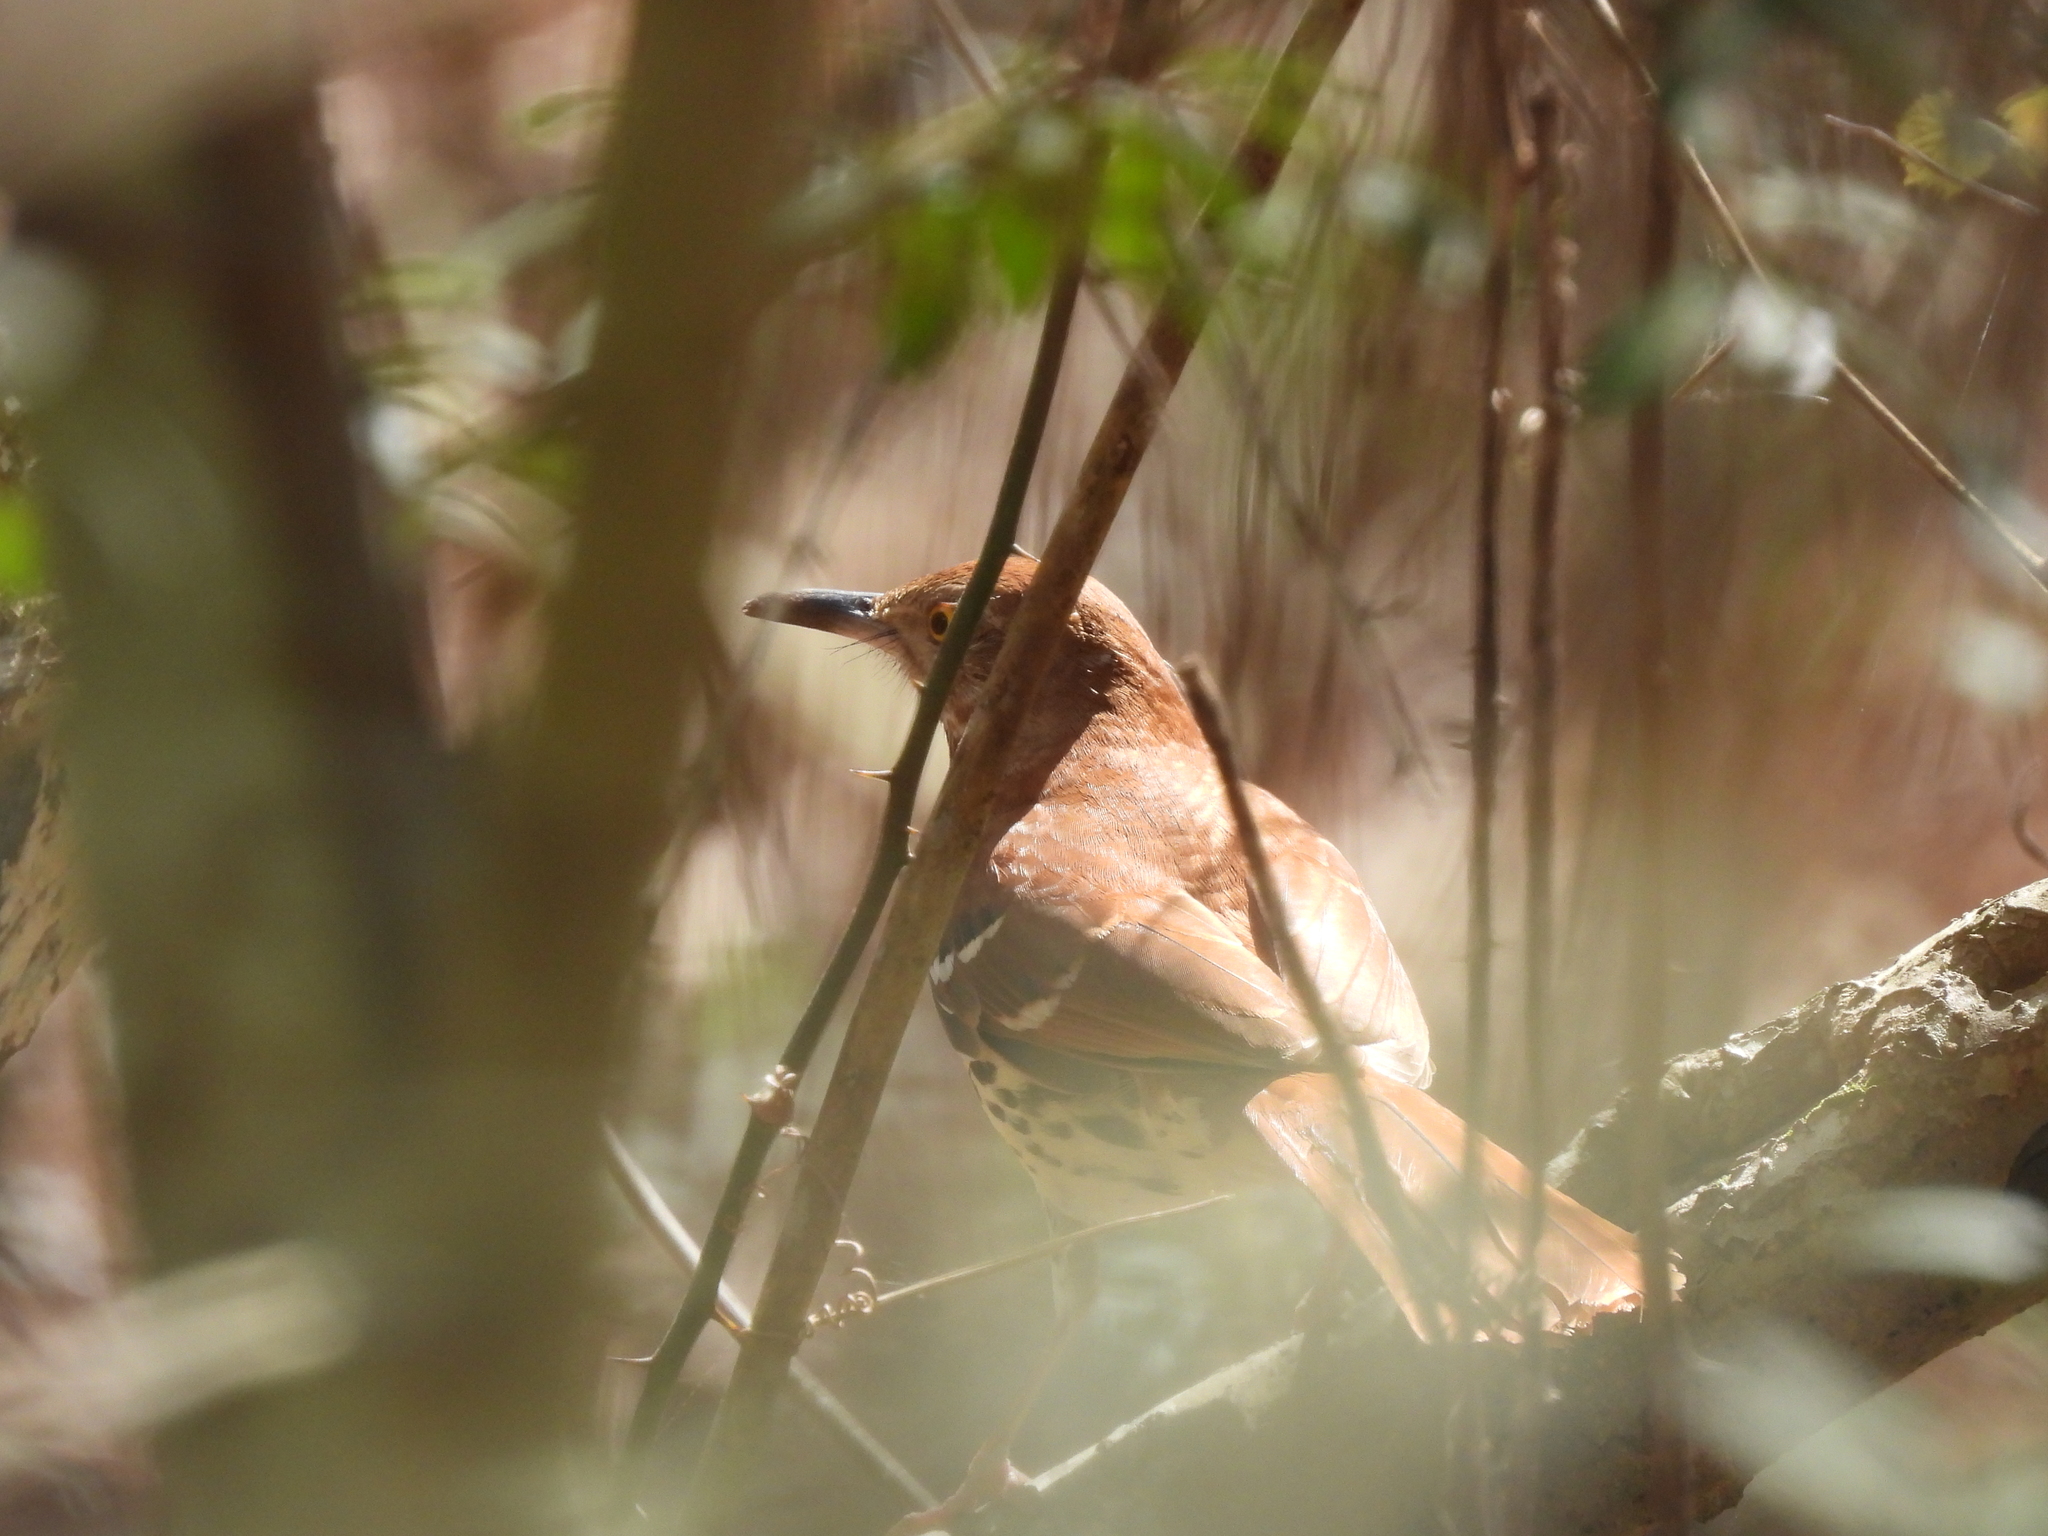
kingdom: Animalia
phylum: Chordata
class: Aves
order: Passeriformes
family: Mimidae
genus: Toxostoma
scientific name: Toxostoma rufum
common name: Brown thrasher
